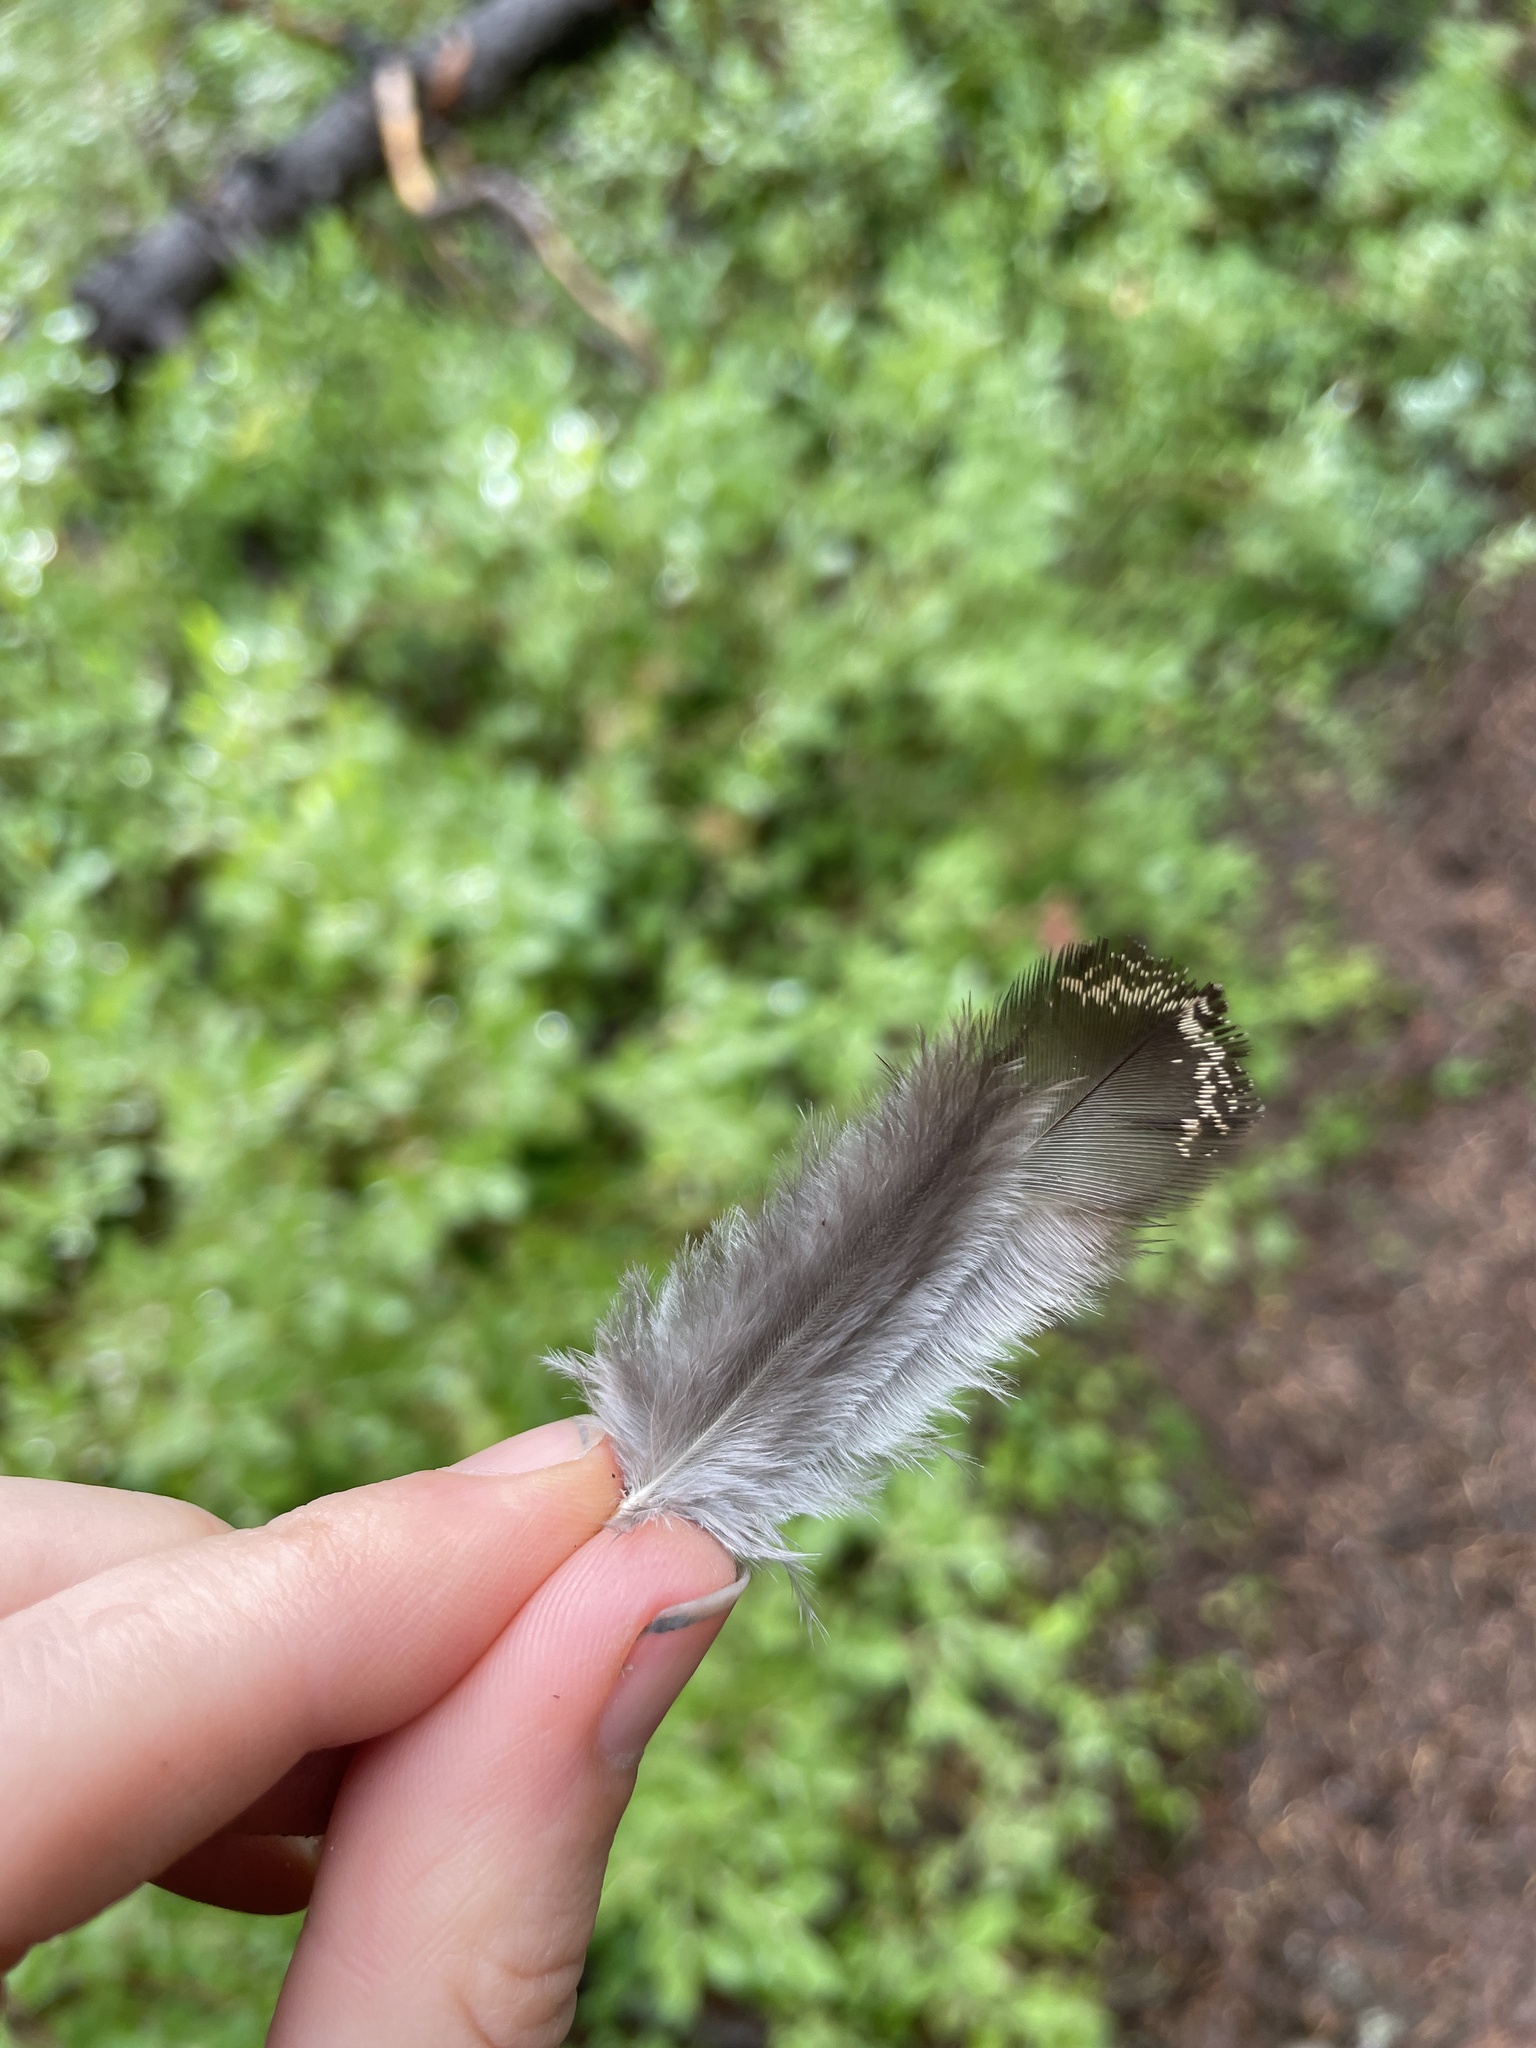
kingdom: Animalia
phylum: Chordata
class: Aves
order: Galliformes
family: Phasianidae
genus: Dendragapus
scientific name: Dendragapus fuliginosus
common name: Sooty grouse
